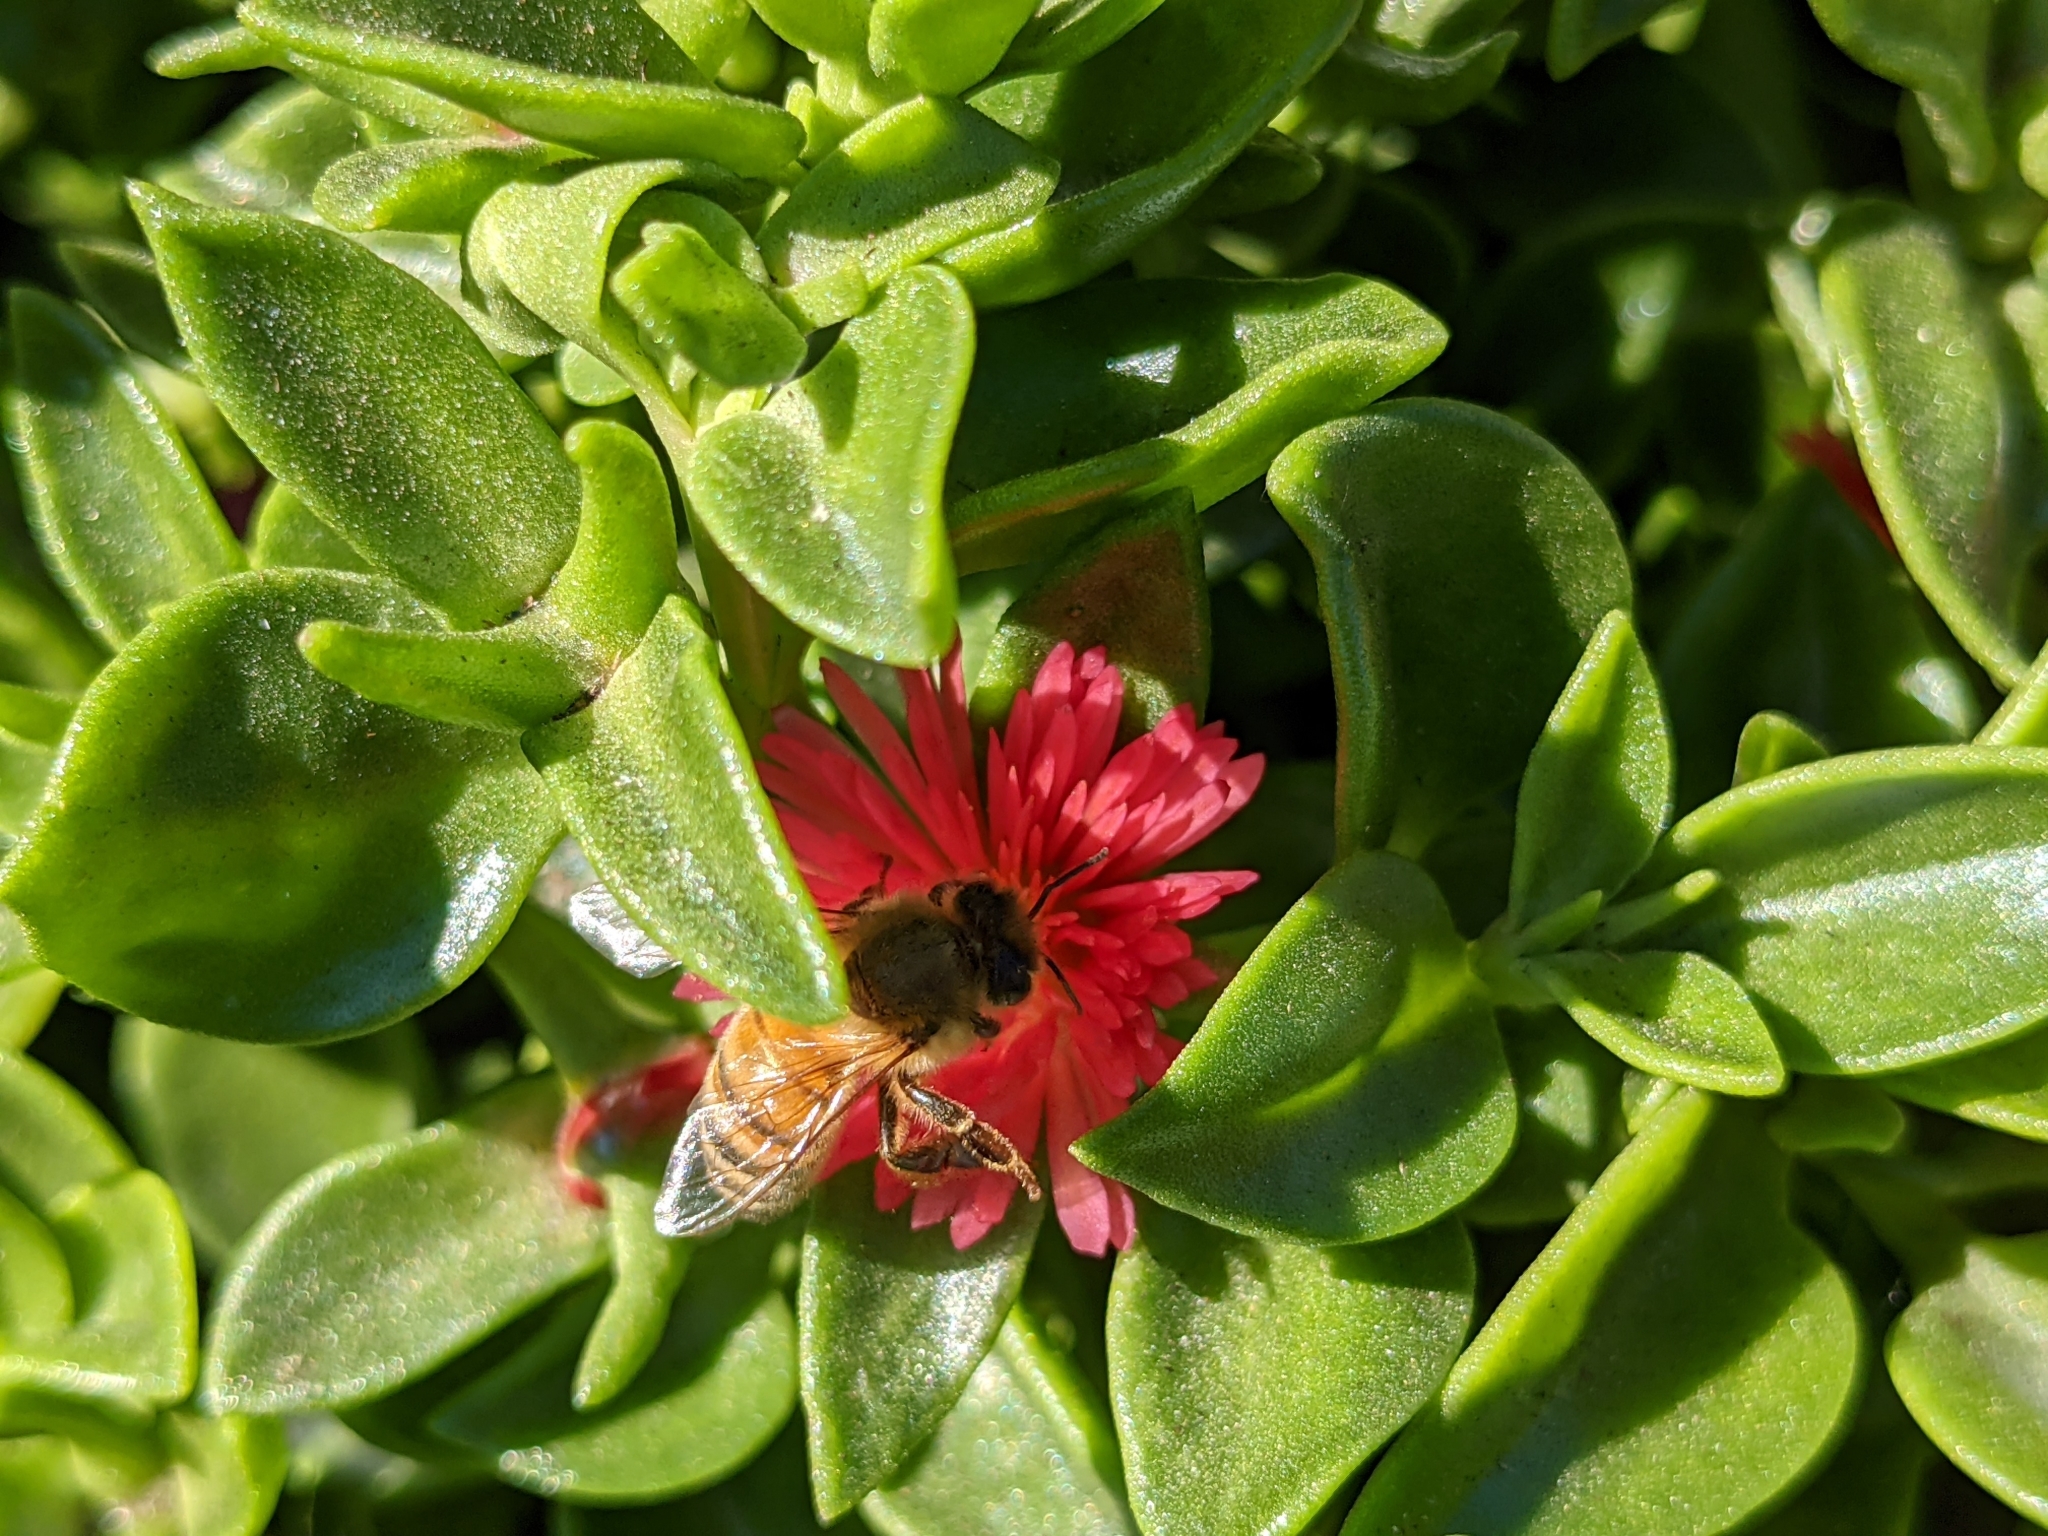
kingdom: Plantae
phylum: Tracheophyta
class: Magnoliopsida
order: Caryophyllales
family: Aizoaceae
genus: Mesembryanthemum
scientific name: Mesembryanthemum cordifolium
